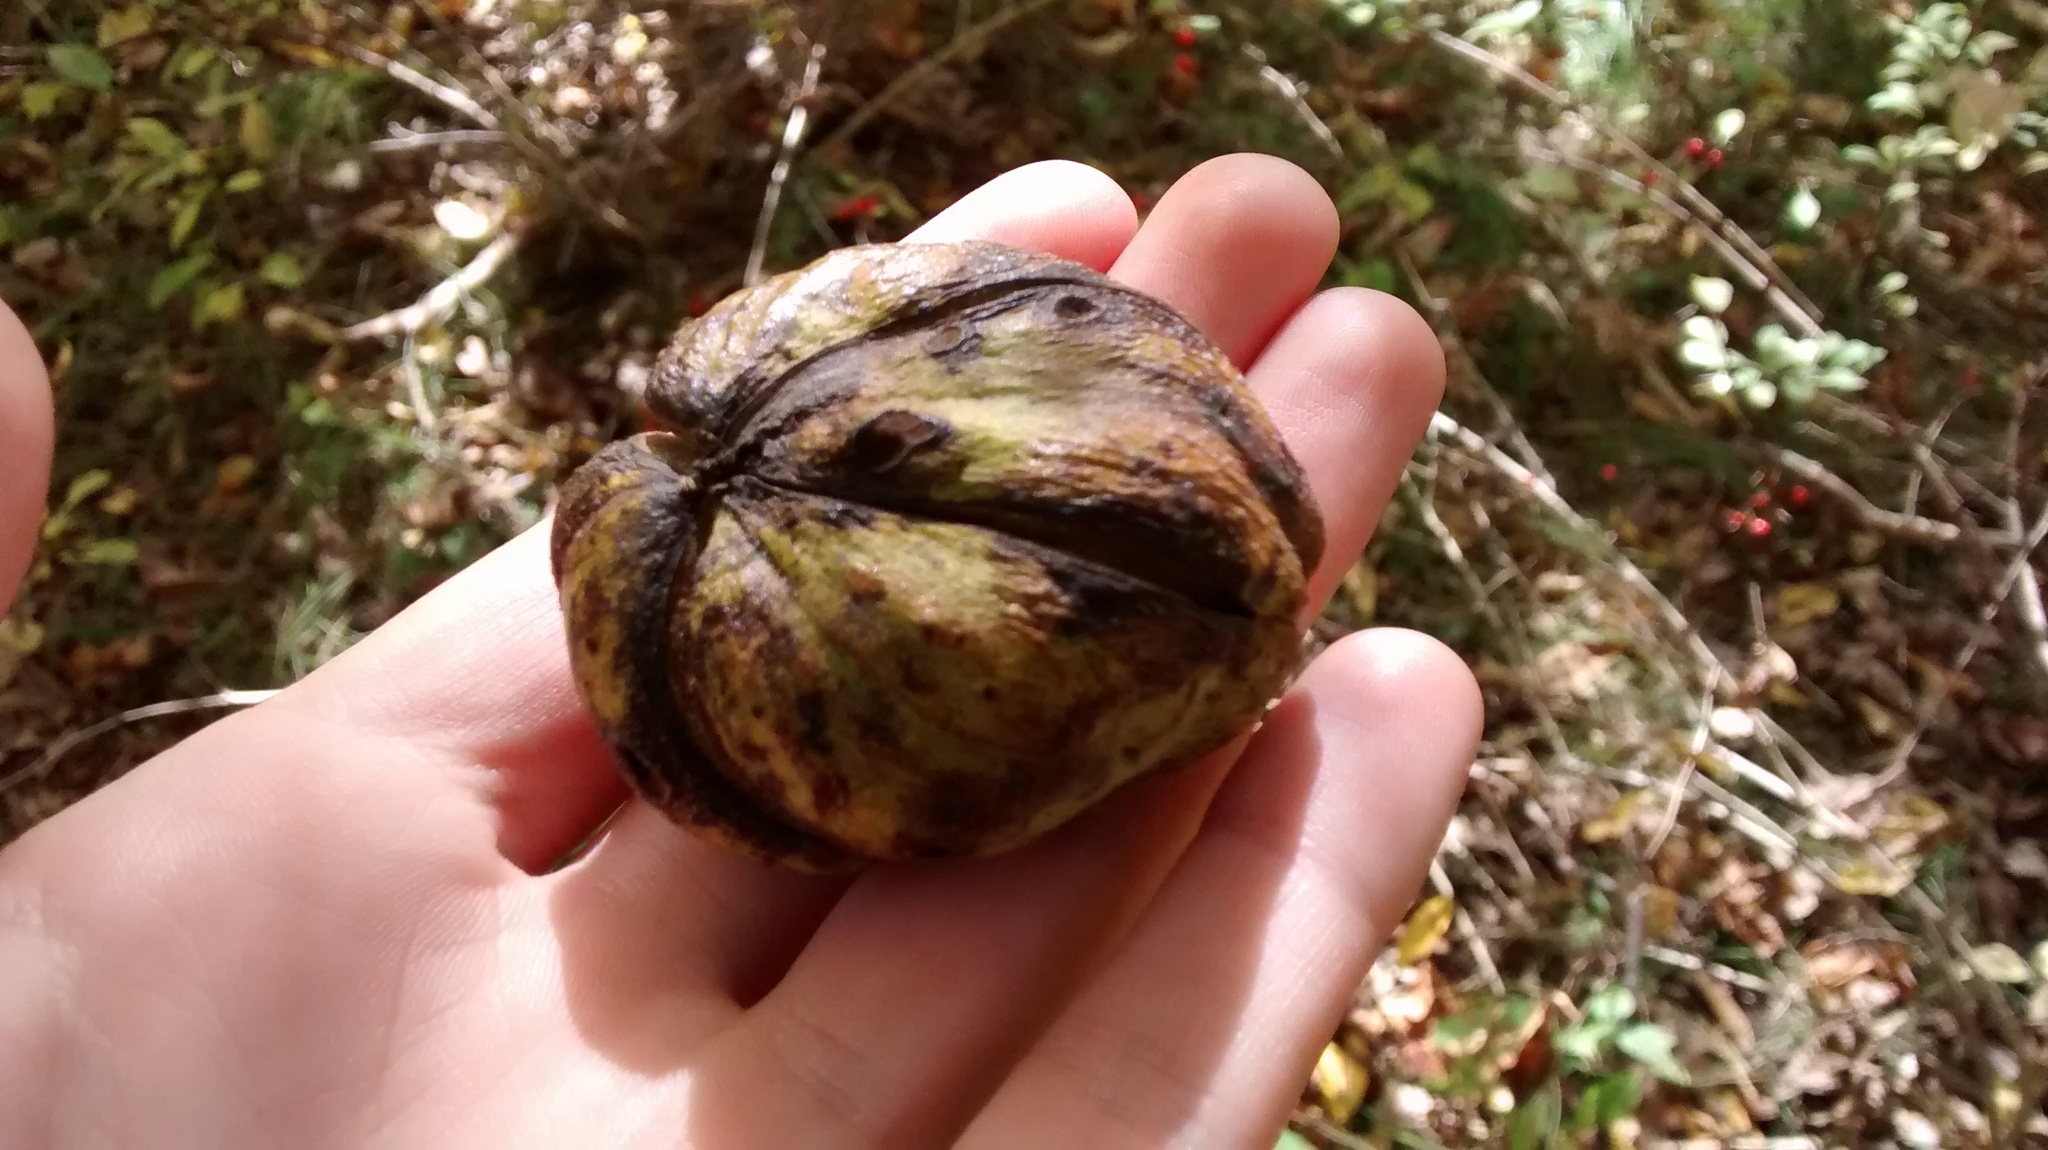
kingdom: Plantae
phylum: Tracheophyta
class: Magnoliopsida
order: Fagales
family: Juglandaceae
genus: Carya
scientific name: Carya ovata
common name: Shagbark hickory
